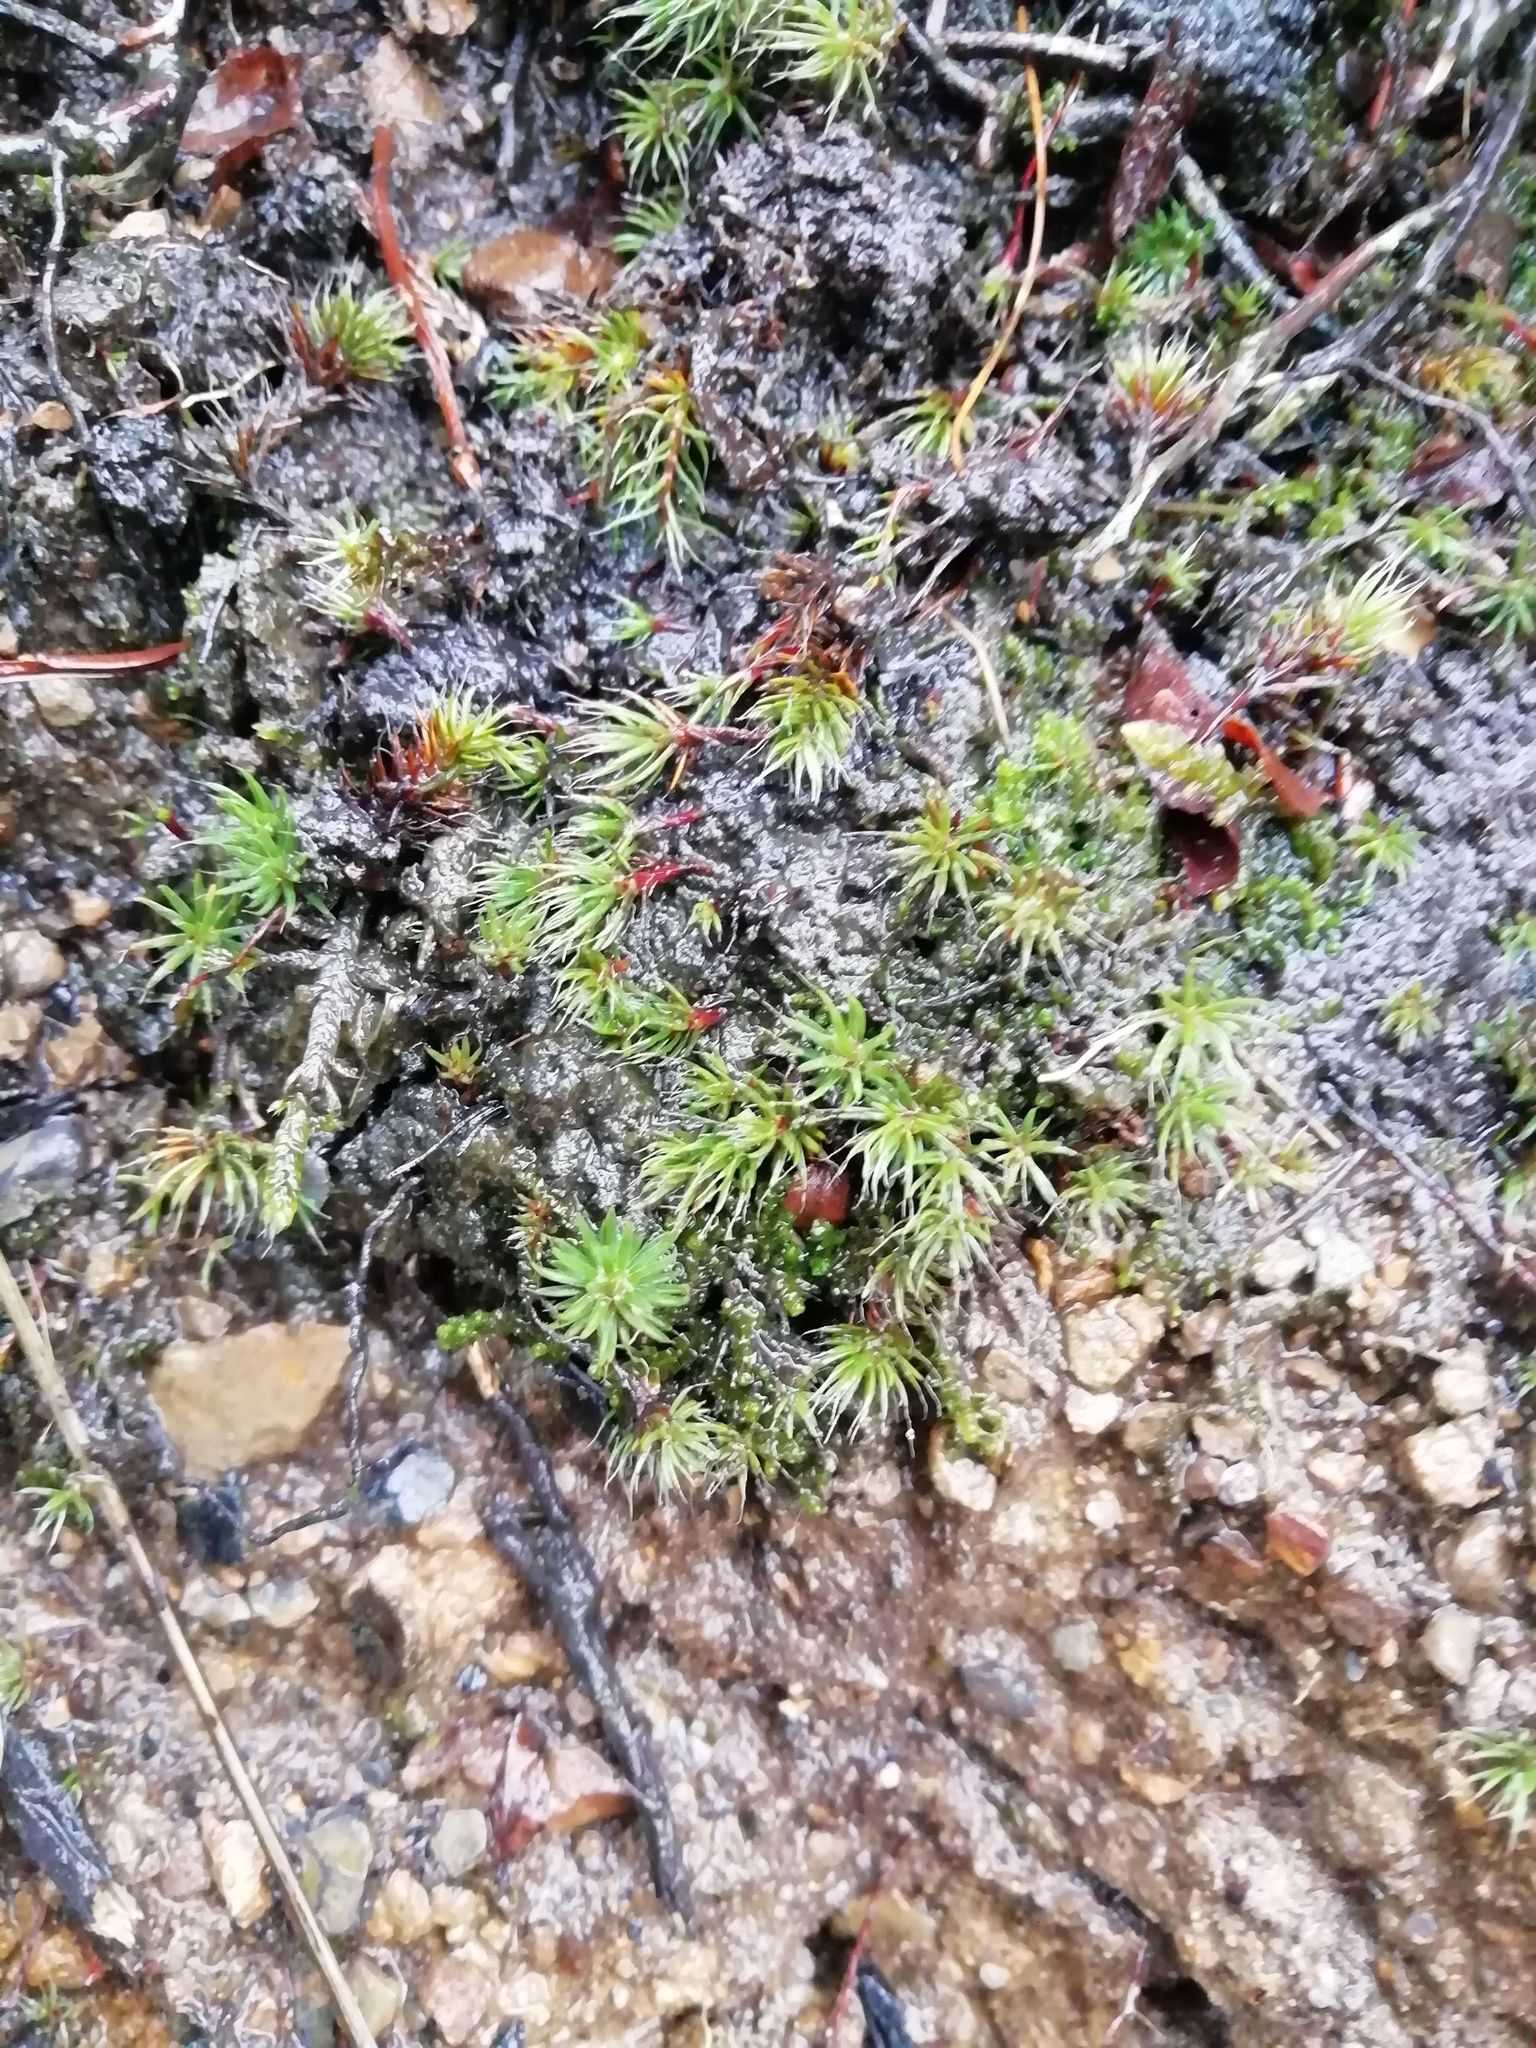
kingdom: Plantae
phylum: Bryophyta
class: Polytrichopsida
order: Polytrichales
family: Polytrichaceae
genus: Polytrichum
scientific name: Polytrichum piliferum
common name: Bristly haircap
